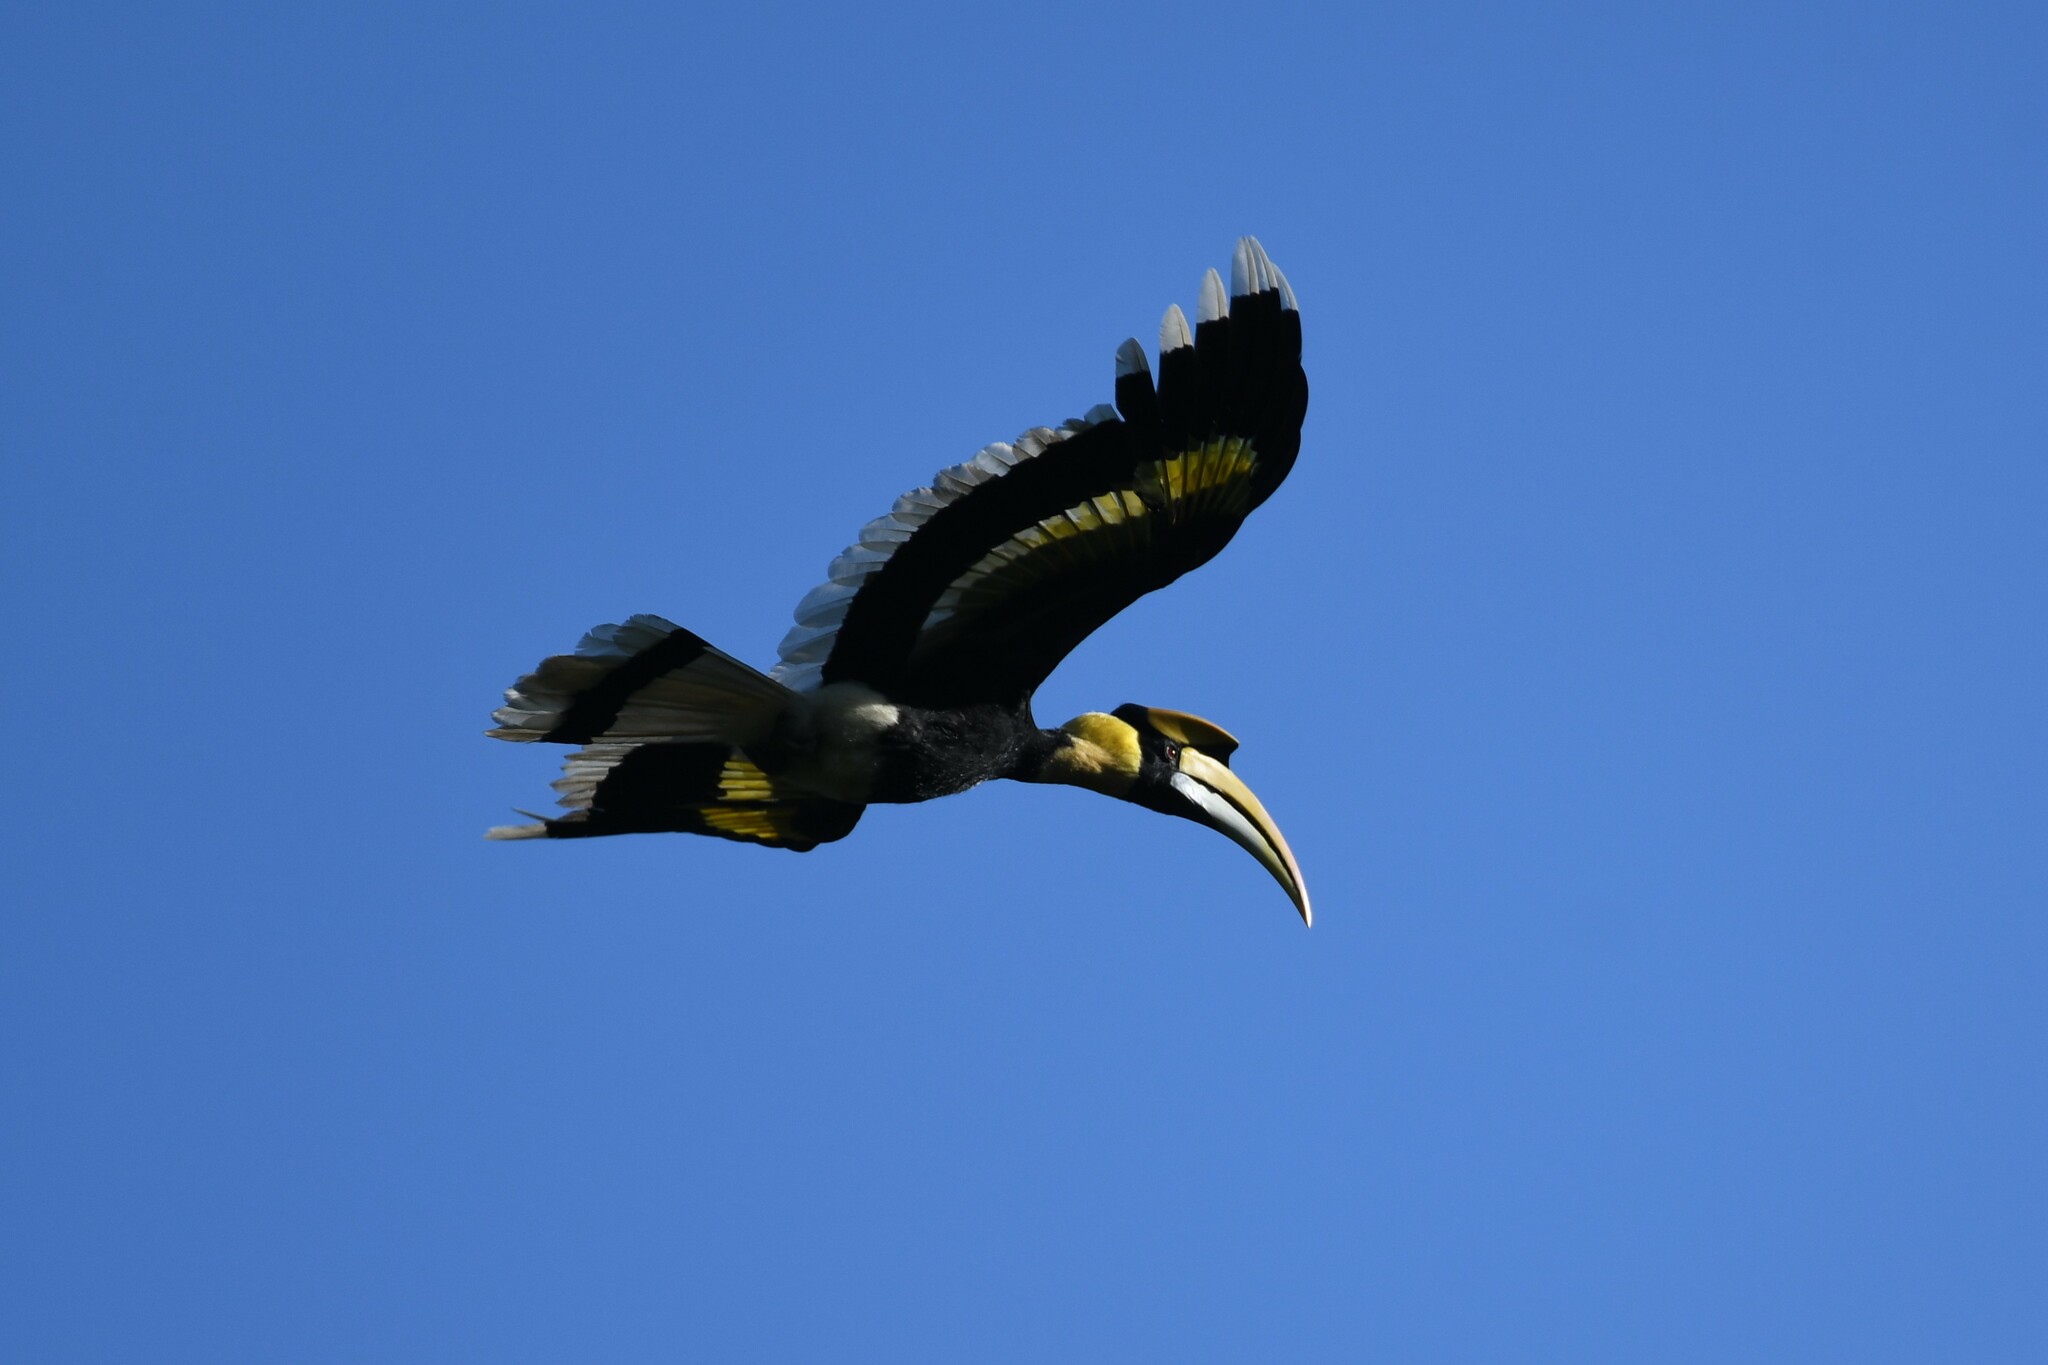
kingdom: Animalia
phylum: Chordata
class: Aves
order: Bucerotiformes
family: Bucerotidae
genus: Buceros
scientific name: Buceros bicornis
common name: Great hornbill
